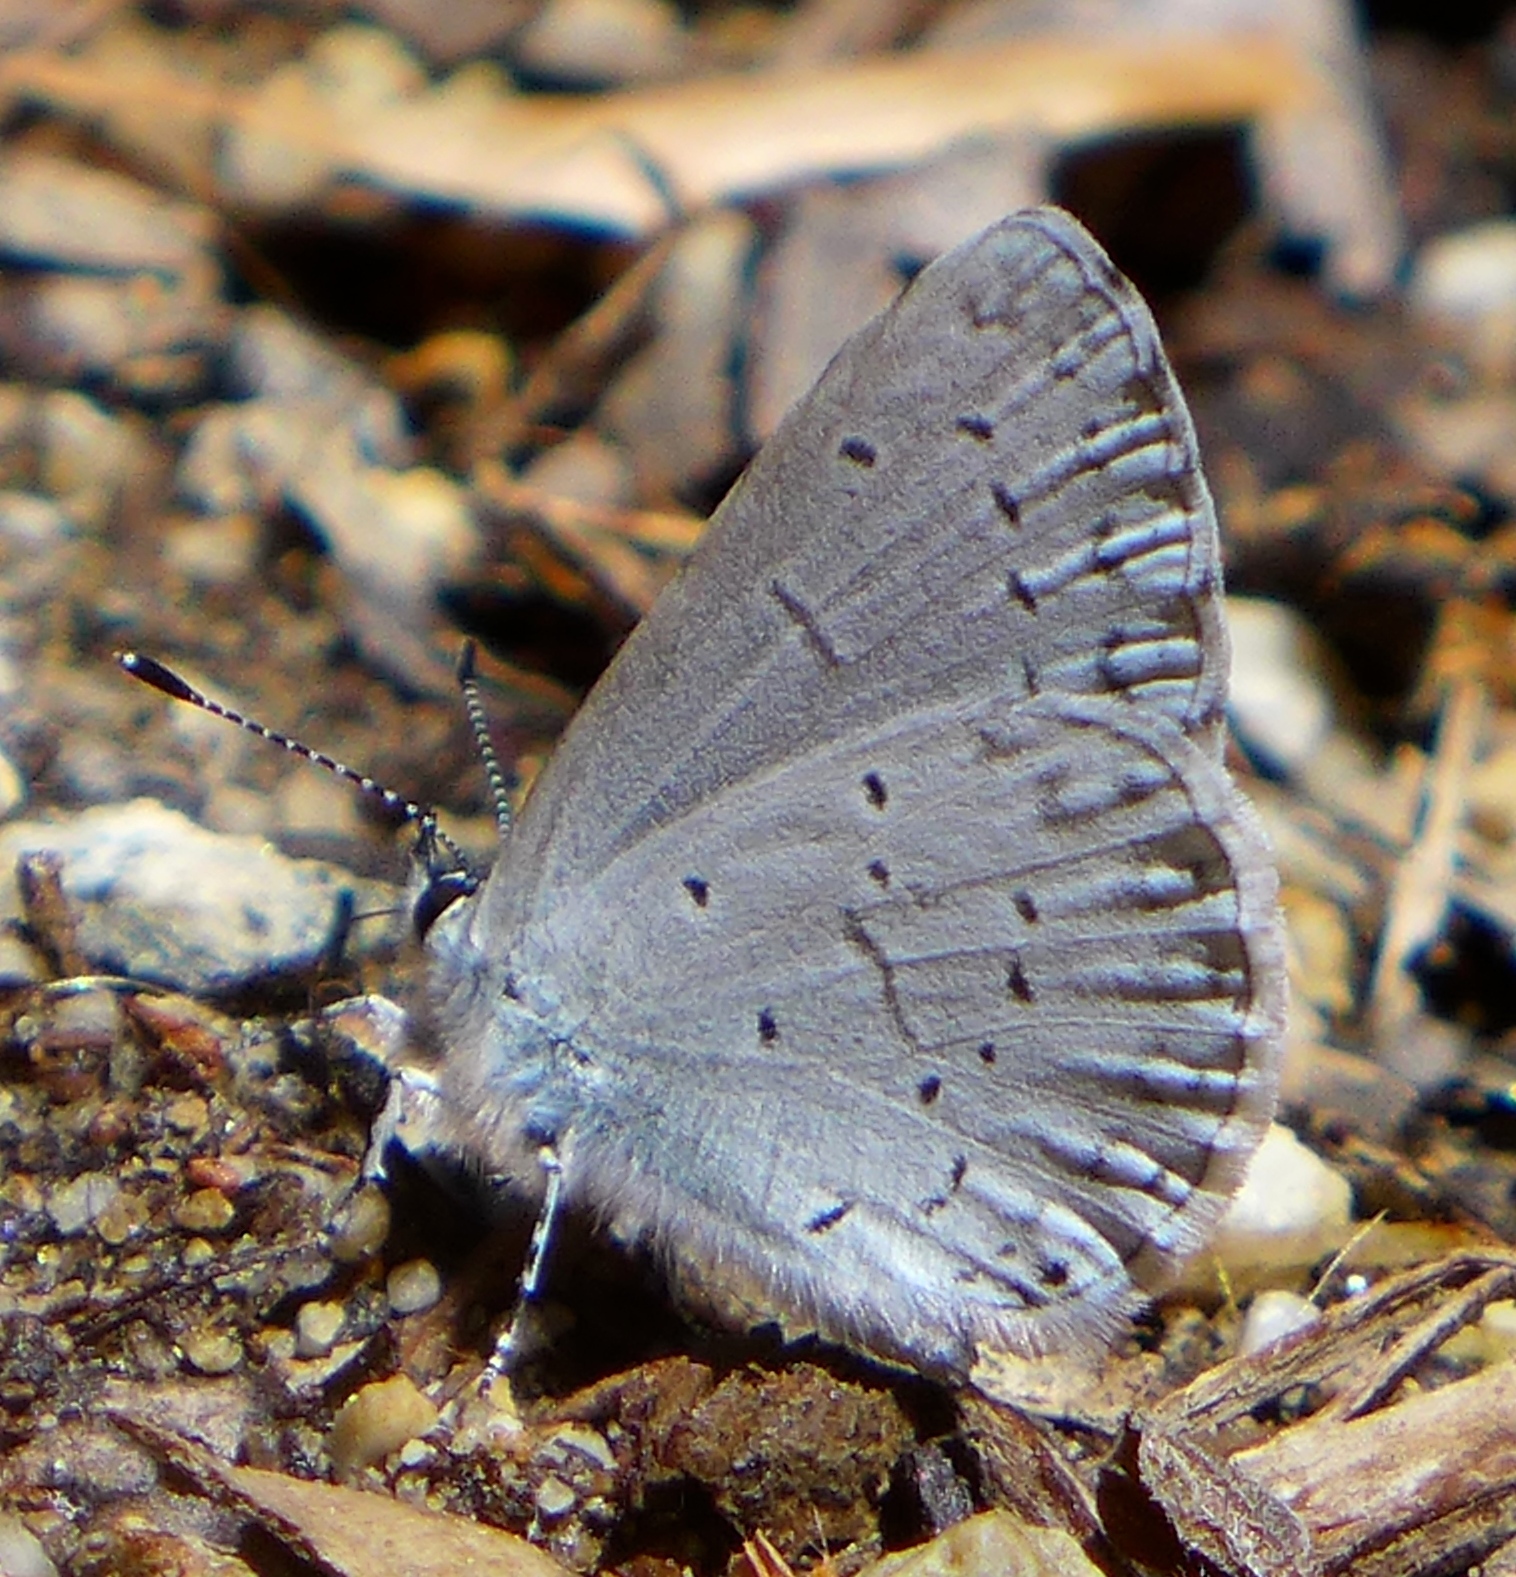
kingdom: Animalia
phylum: Arthropoda
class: Insecta
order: Lepidoptera
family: Lycaenidae
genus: Celastrina
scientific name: Celastrina ladon
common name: Spring azure
